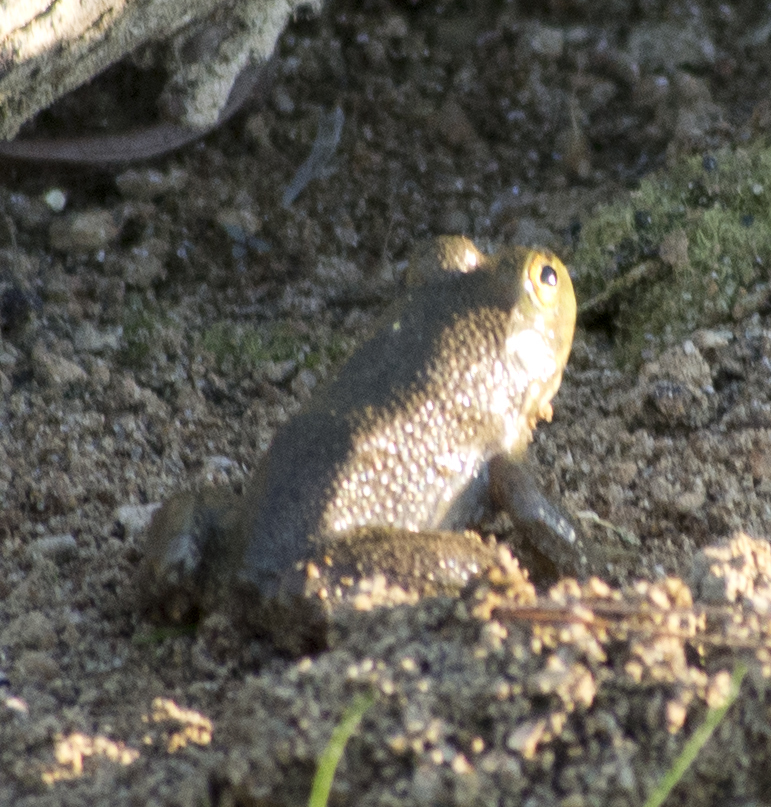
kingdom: Animalia
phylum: Chordata
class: Amphibia
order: Anura
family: Ranidae
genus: Lithobates
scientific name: Lithobates catesbeianus
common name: American bullfrog
